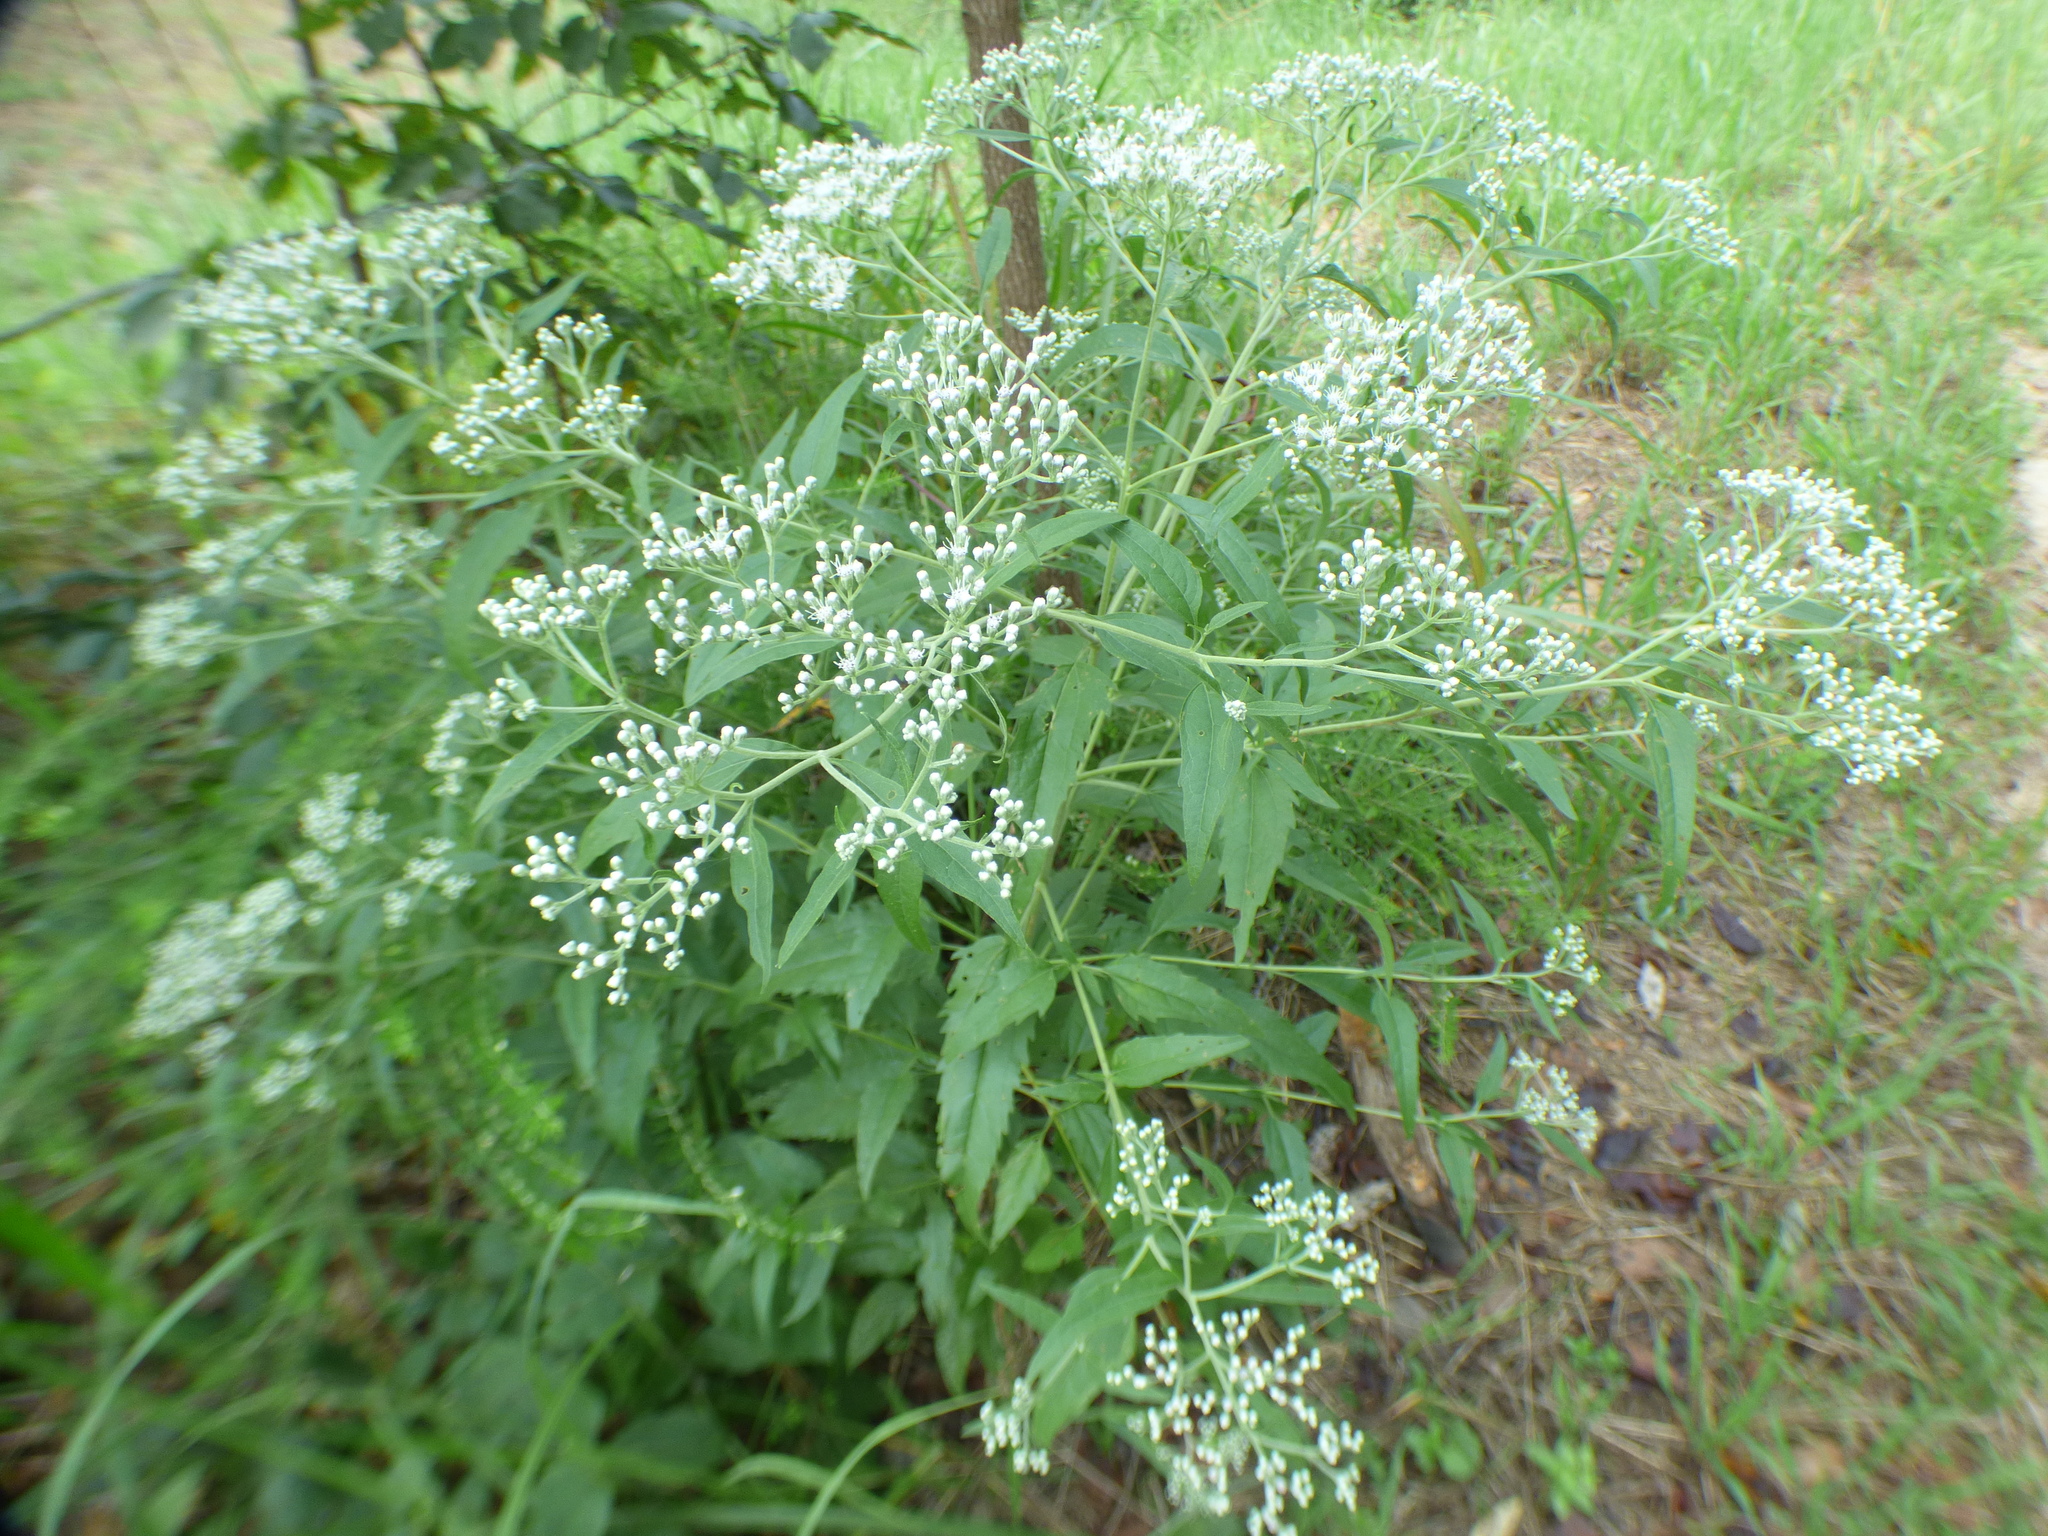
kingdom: Plantae
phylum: Tracheophyta
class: Magnoliopsida
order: Asterales
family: Asteraceae
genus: Eupatorium
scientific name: Eupatorium serotinum
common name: Late boneset
